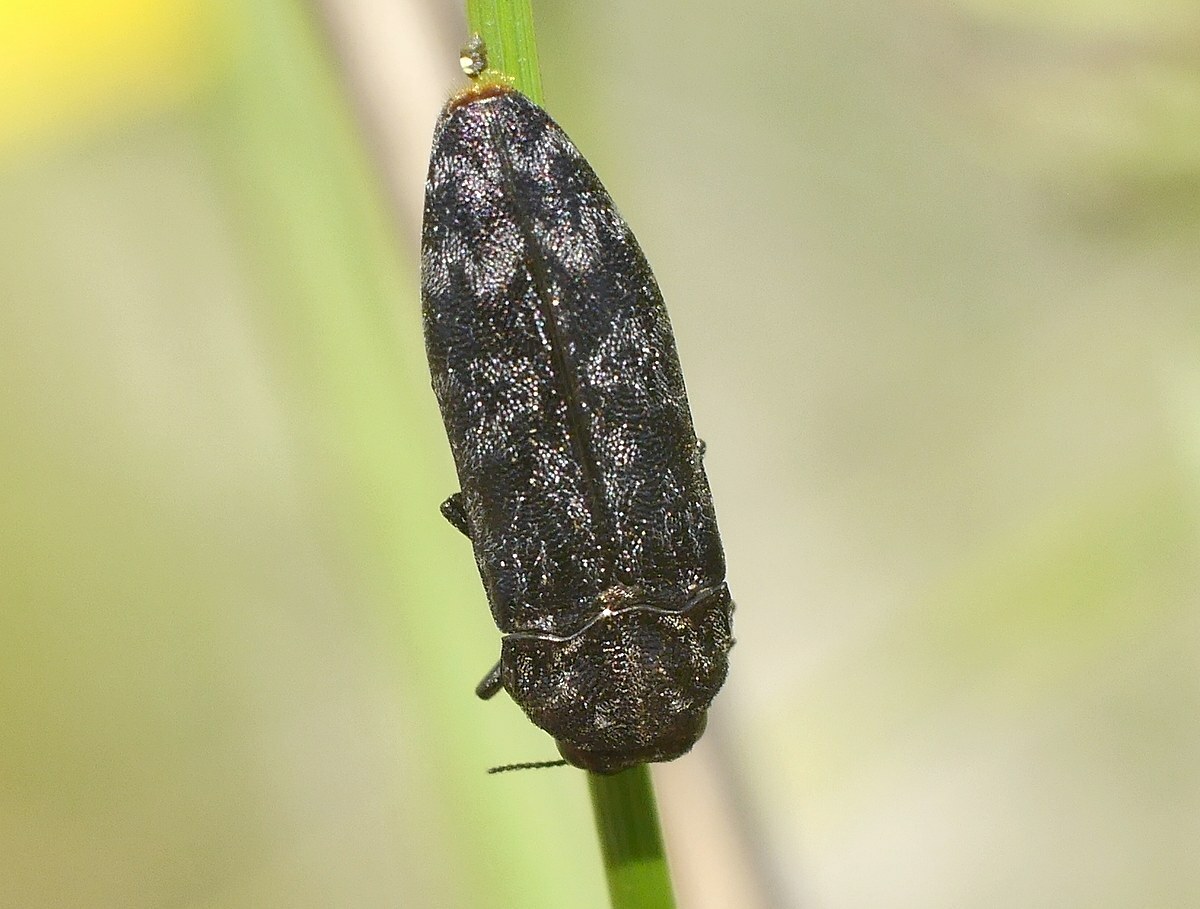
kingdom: Animalia
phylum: Arthropoda
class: Insecta
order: Coleoptera
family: Buprestidae
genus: Coraebus
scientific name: Coraebus rubi
